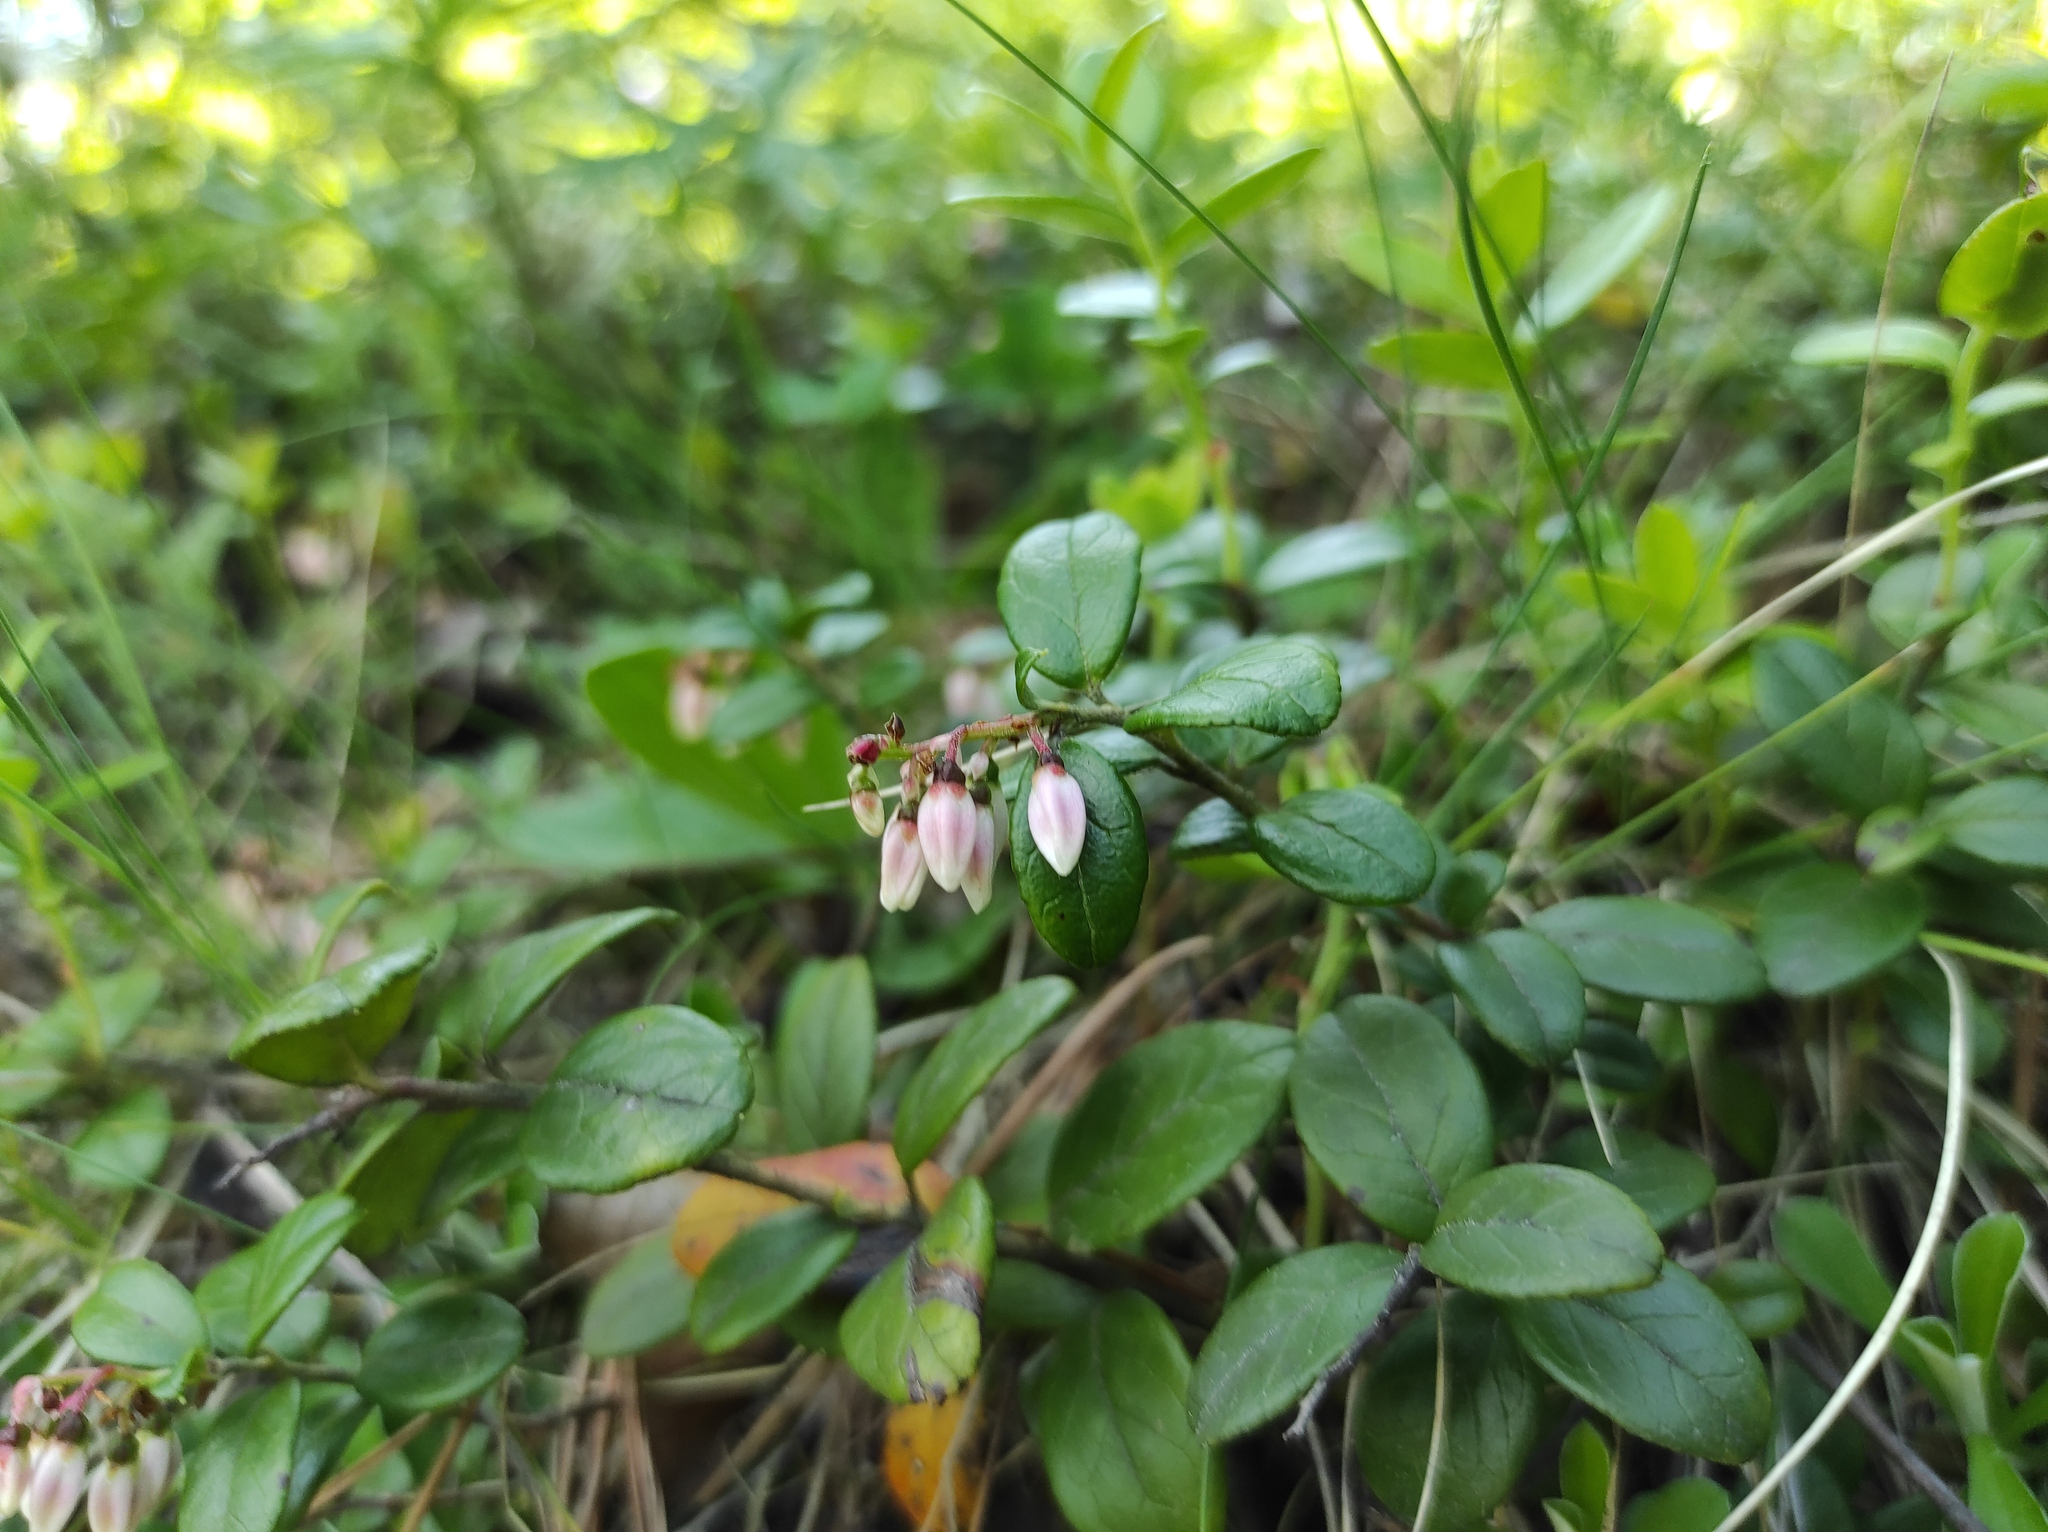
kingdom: Plantae
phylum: Tracheophyta
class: Magnoliopsida
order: Ericales
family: Ericaceae
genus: Vaccinium
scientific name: Vaccinium vitis-idaea
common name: Cowberry
